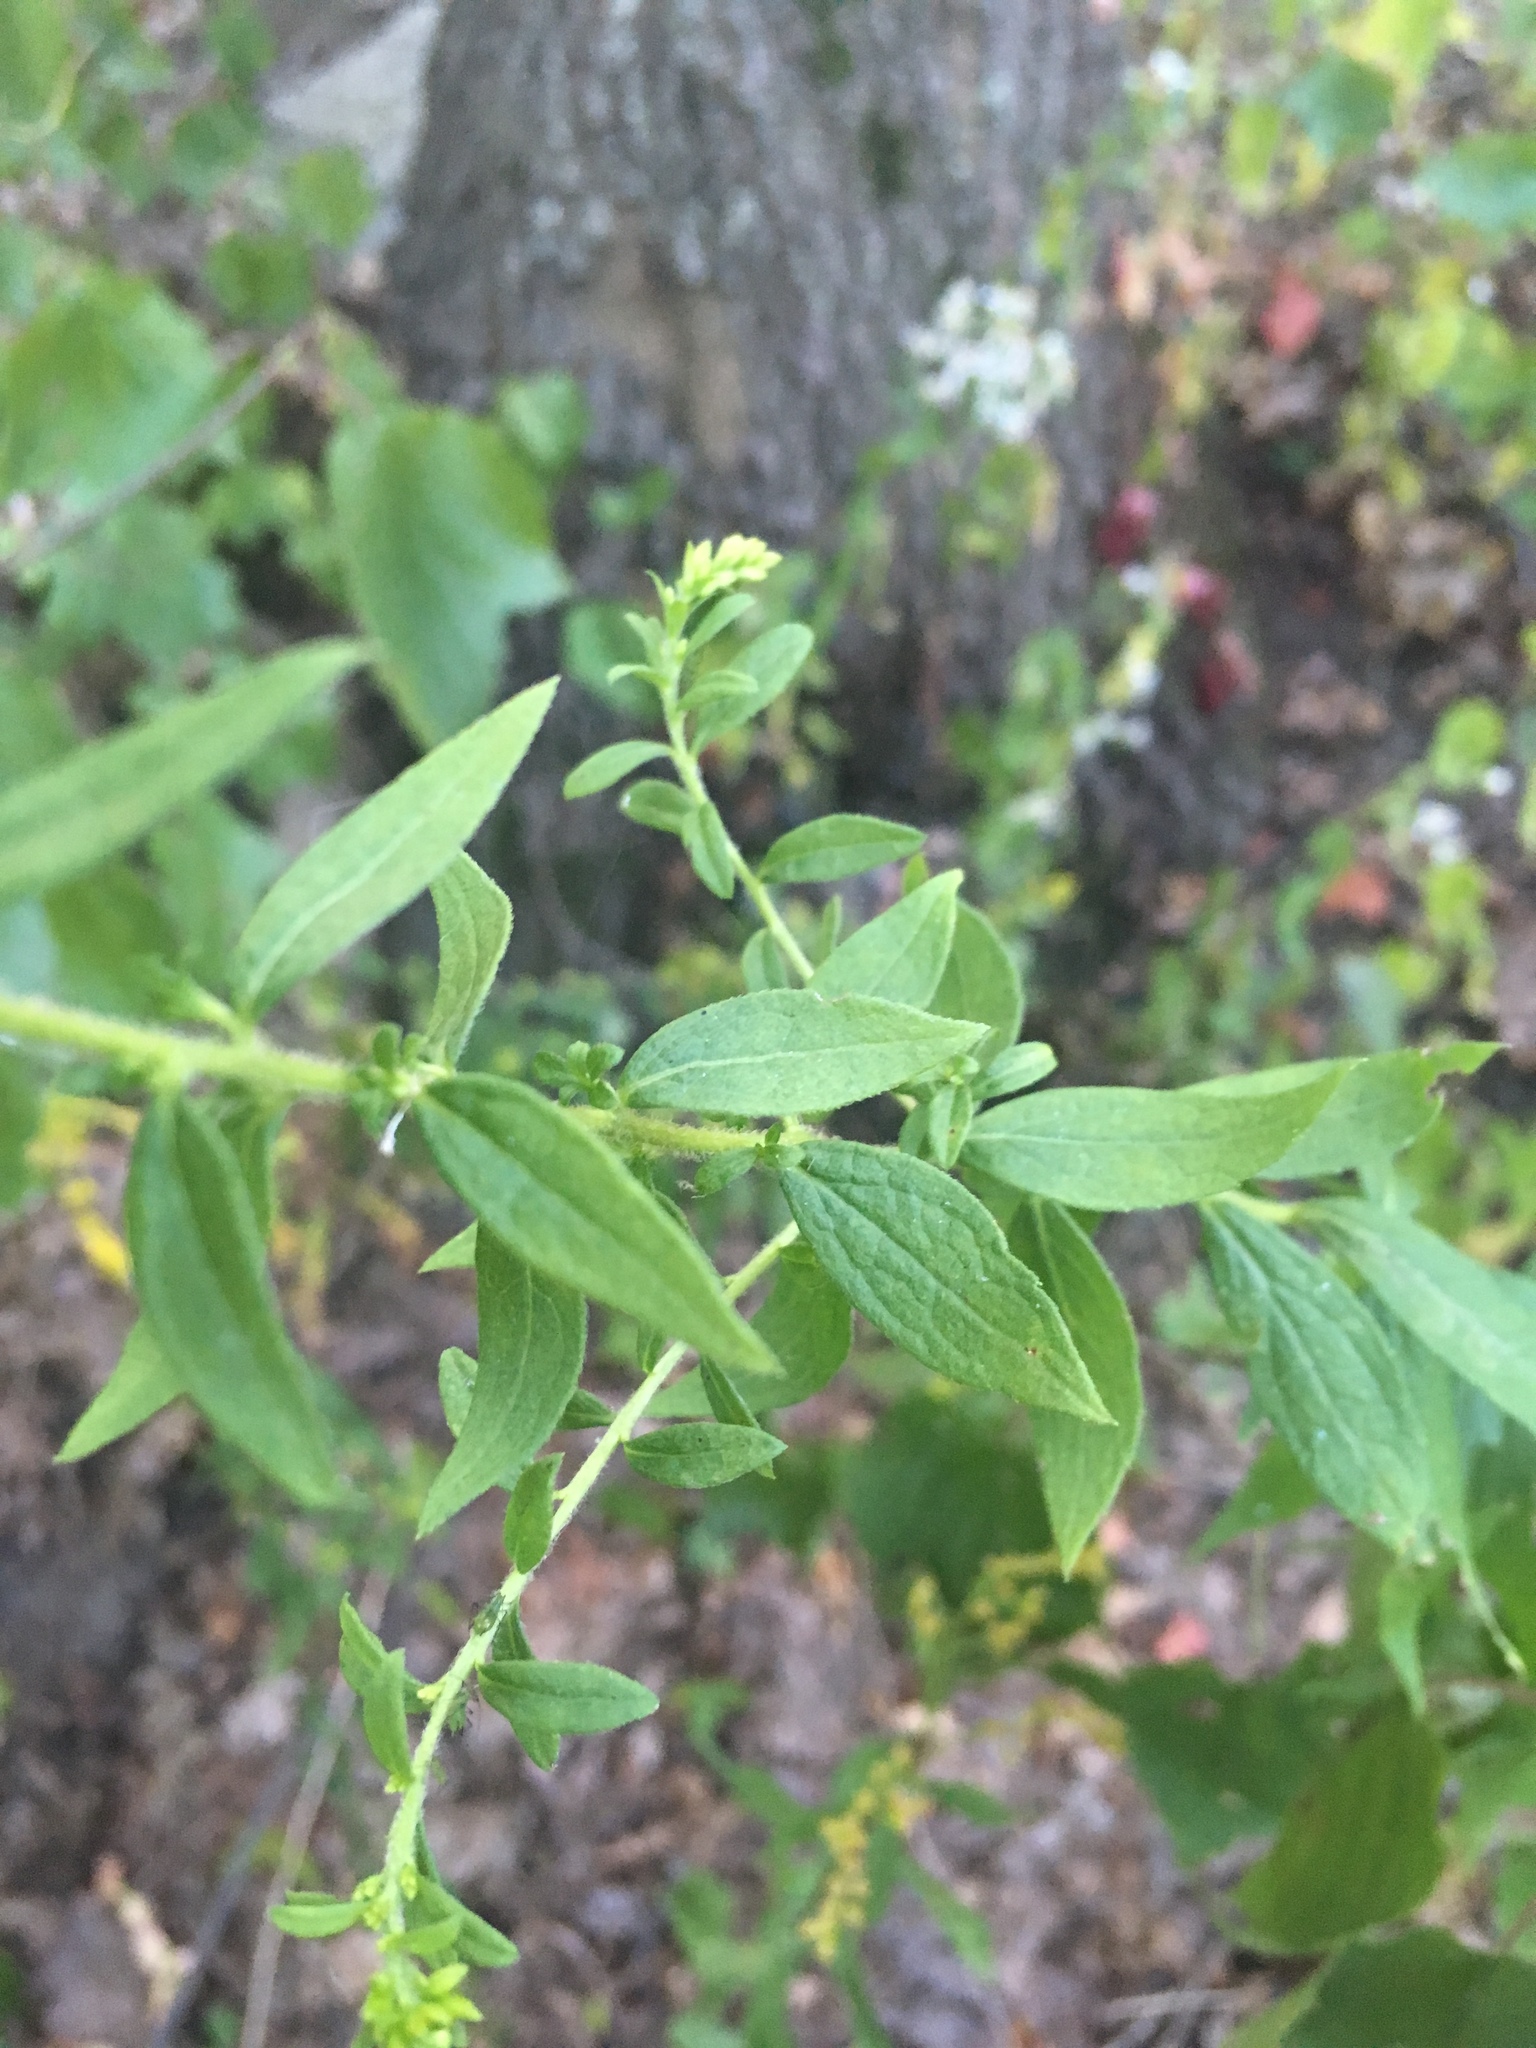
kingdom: Plantae
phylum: Tracheophyta
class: Magnoliopsida
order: Asterales
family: Asteraceae
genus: Solidago
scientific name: Solidago rugosa
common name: Rough-stemmed goldenrod
